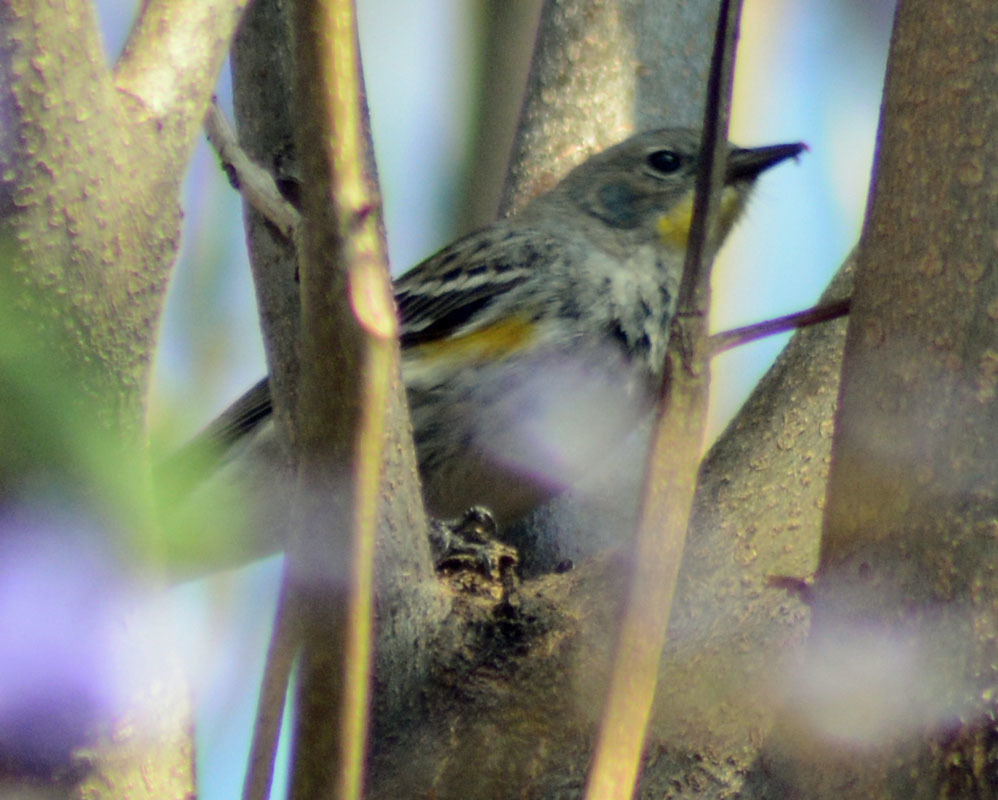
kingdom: Animalia
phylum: Chordata
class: Aves
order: Passeriformes
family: Parulidae
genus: Setophaga
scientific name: Setophaga auduboni
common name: Audubon's warbler
